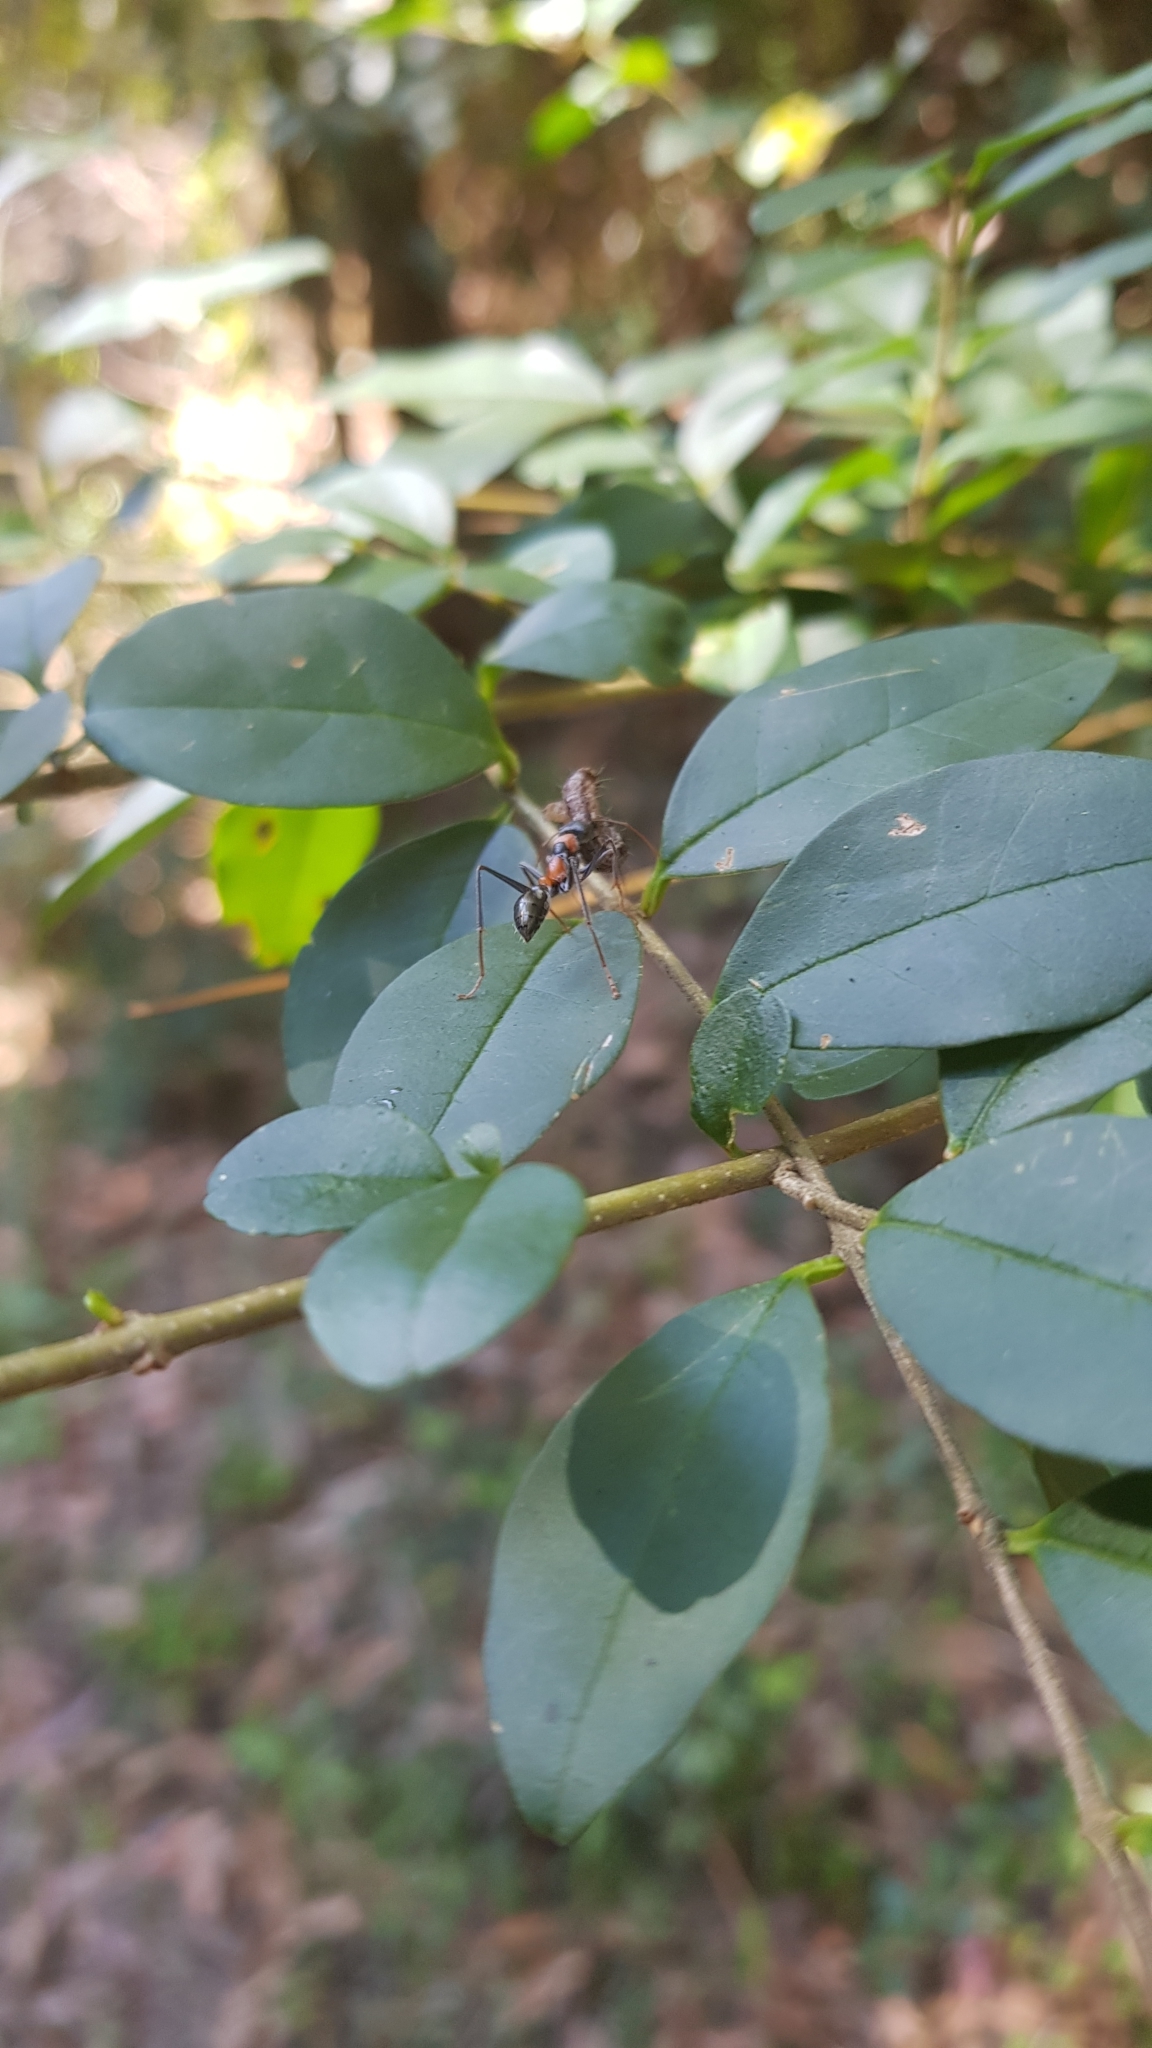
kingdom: Animalia
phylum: Arthropoda
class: Insecta
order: Hymenoptera
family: Formicidae
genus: Myrmecia
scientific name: Myrmecia nigrocincta
